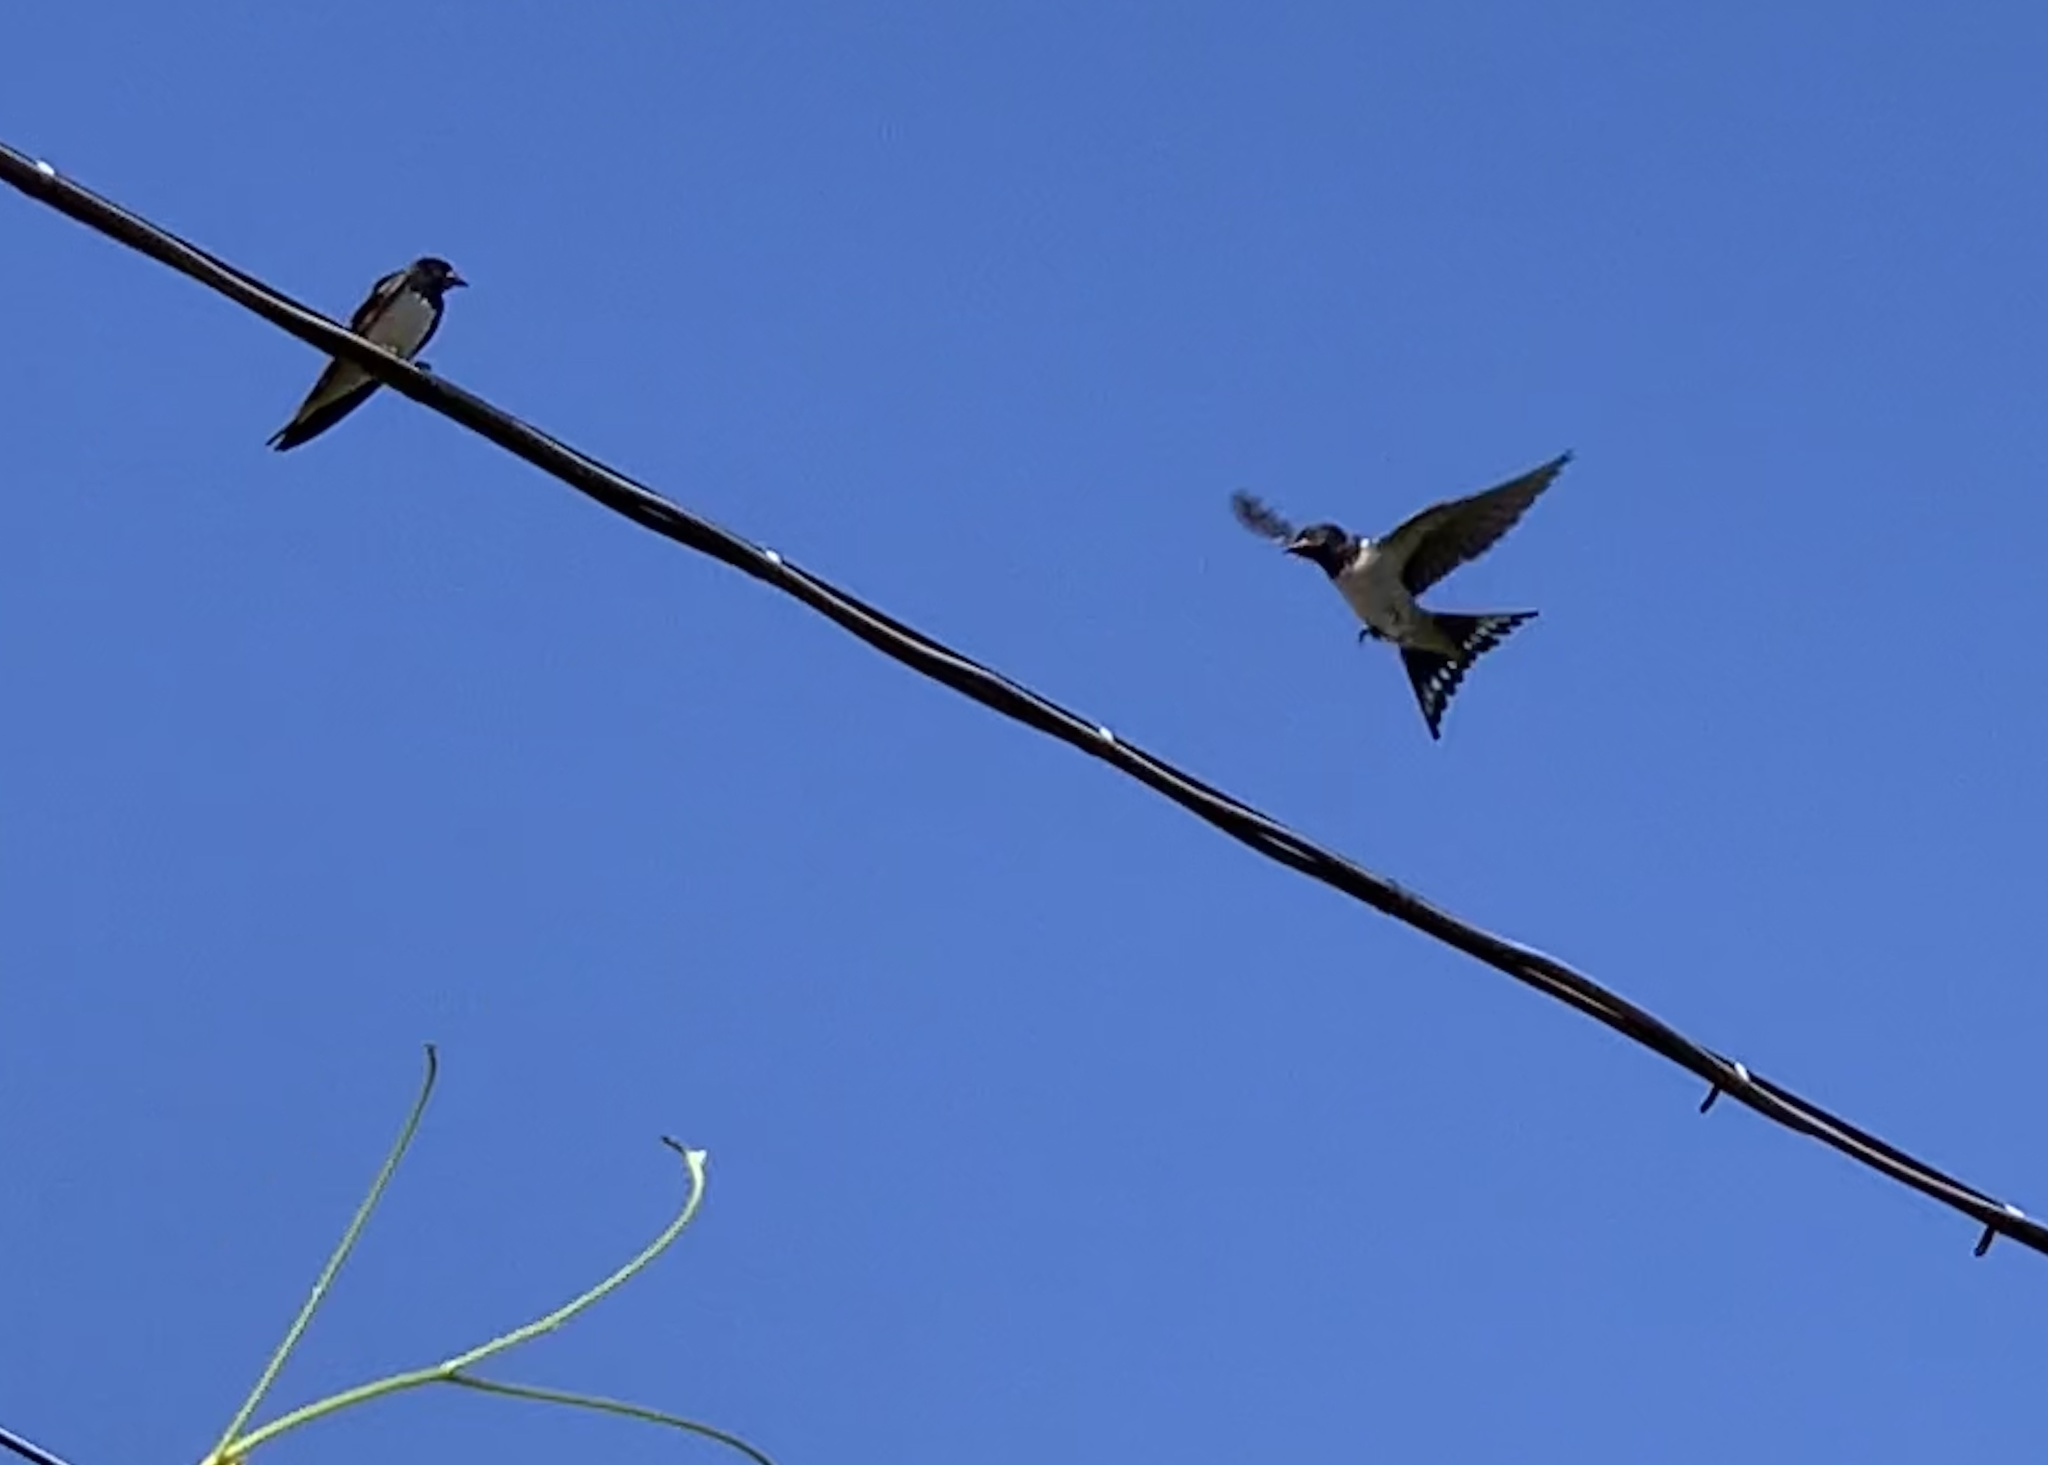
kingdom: Animalia
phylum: Chordata
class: Aves
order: Passeriformes
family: Hirundinidae
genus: Hirundo
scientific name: Hirundo rustica
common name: Barn swallow
